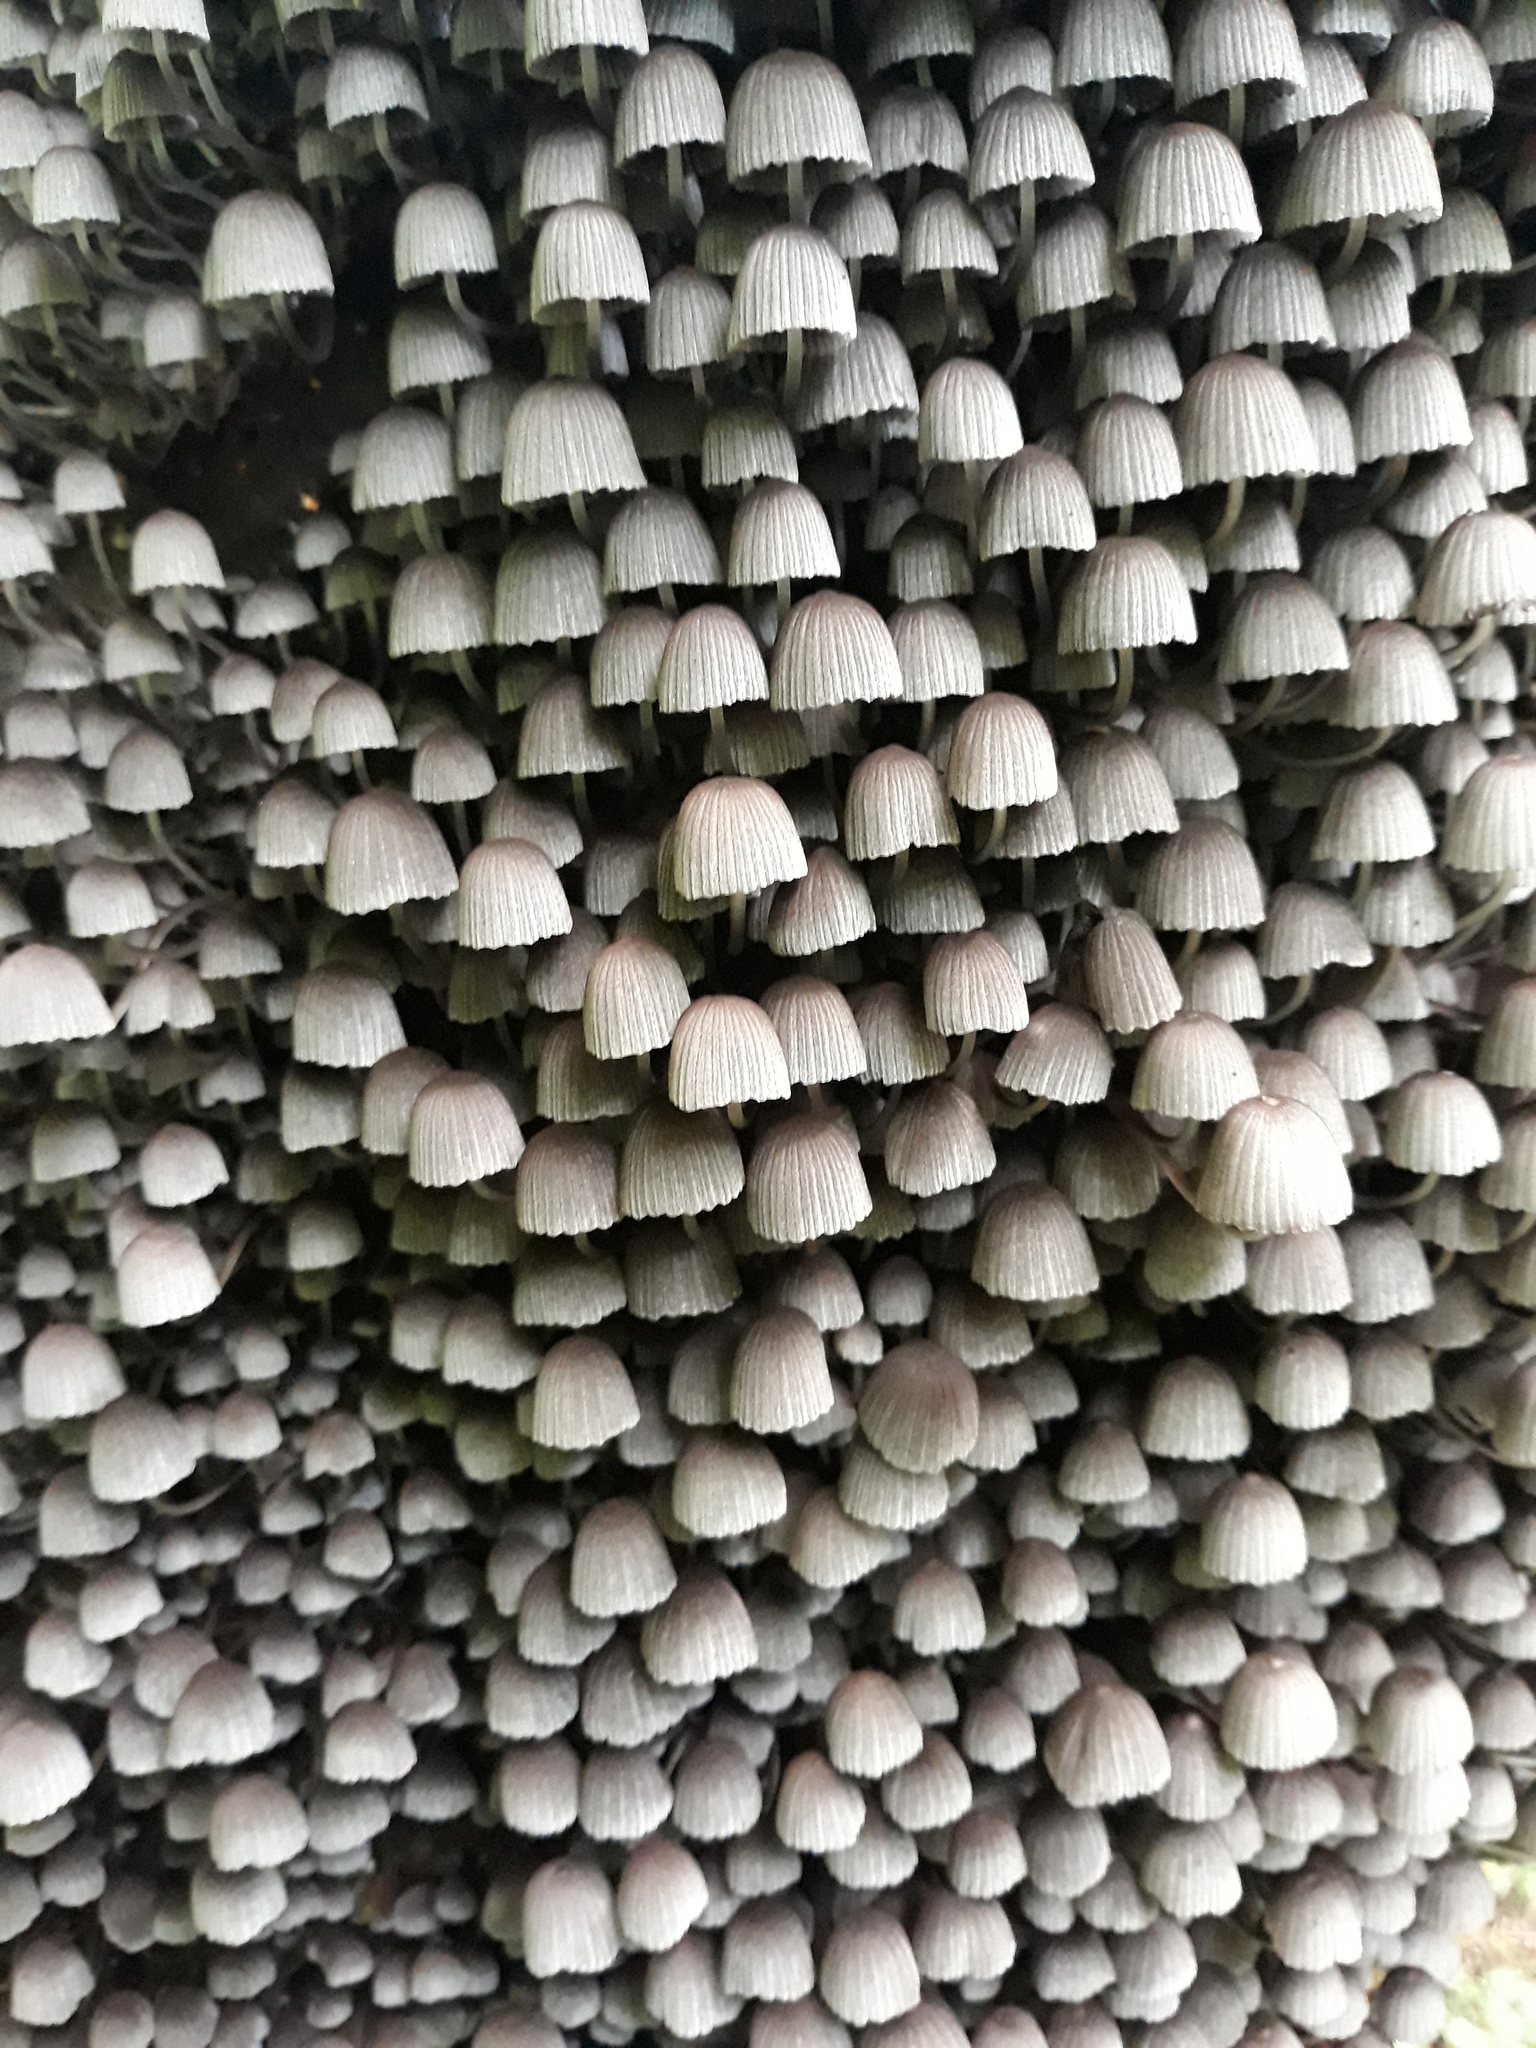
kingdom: Fungi
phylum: Basidiomycota
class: Agaricomycetes
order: Agaricales
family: Psathyrellaceae
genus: Coprinellus
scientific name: Coprinellus disseminatus
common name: Fairies' bonnets
